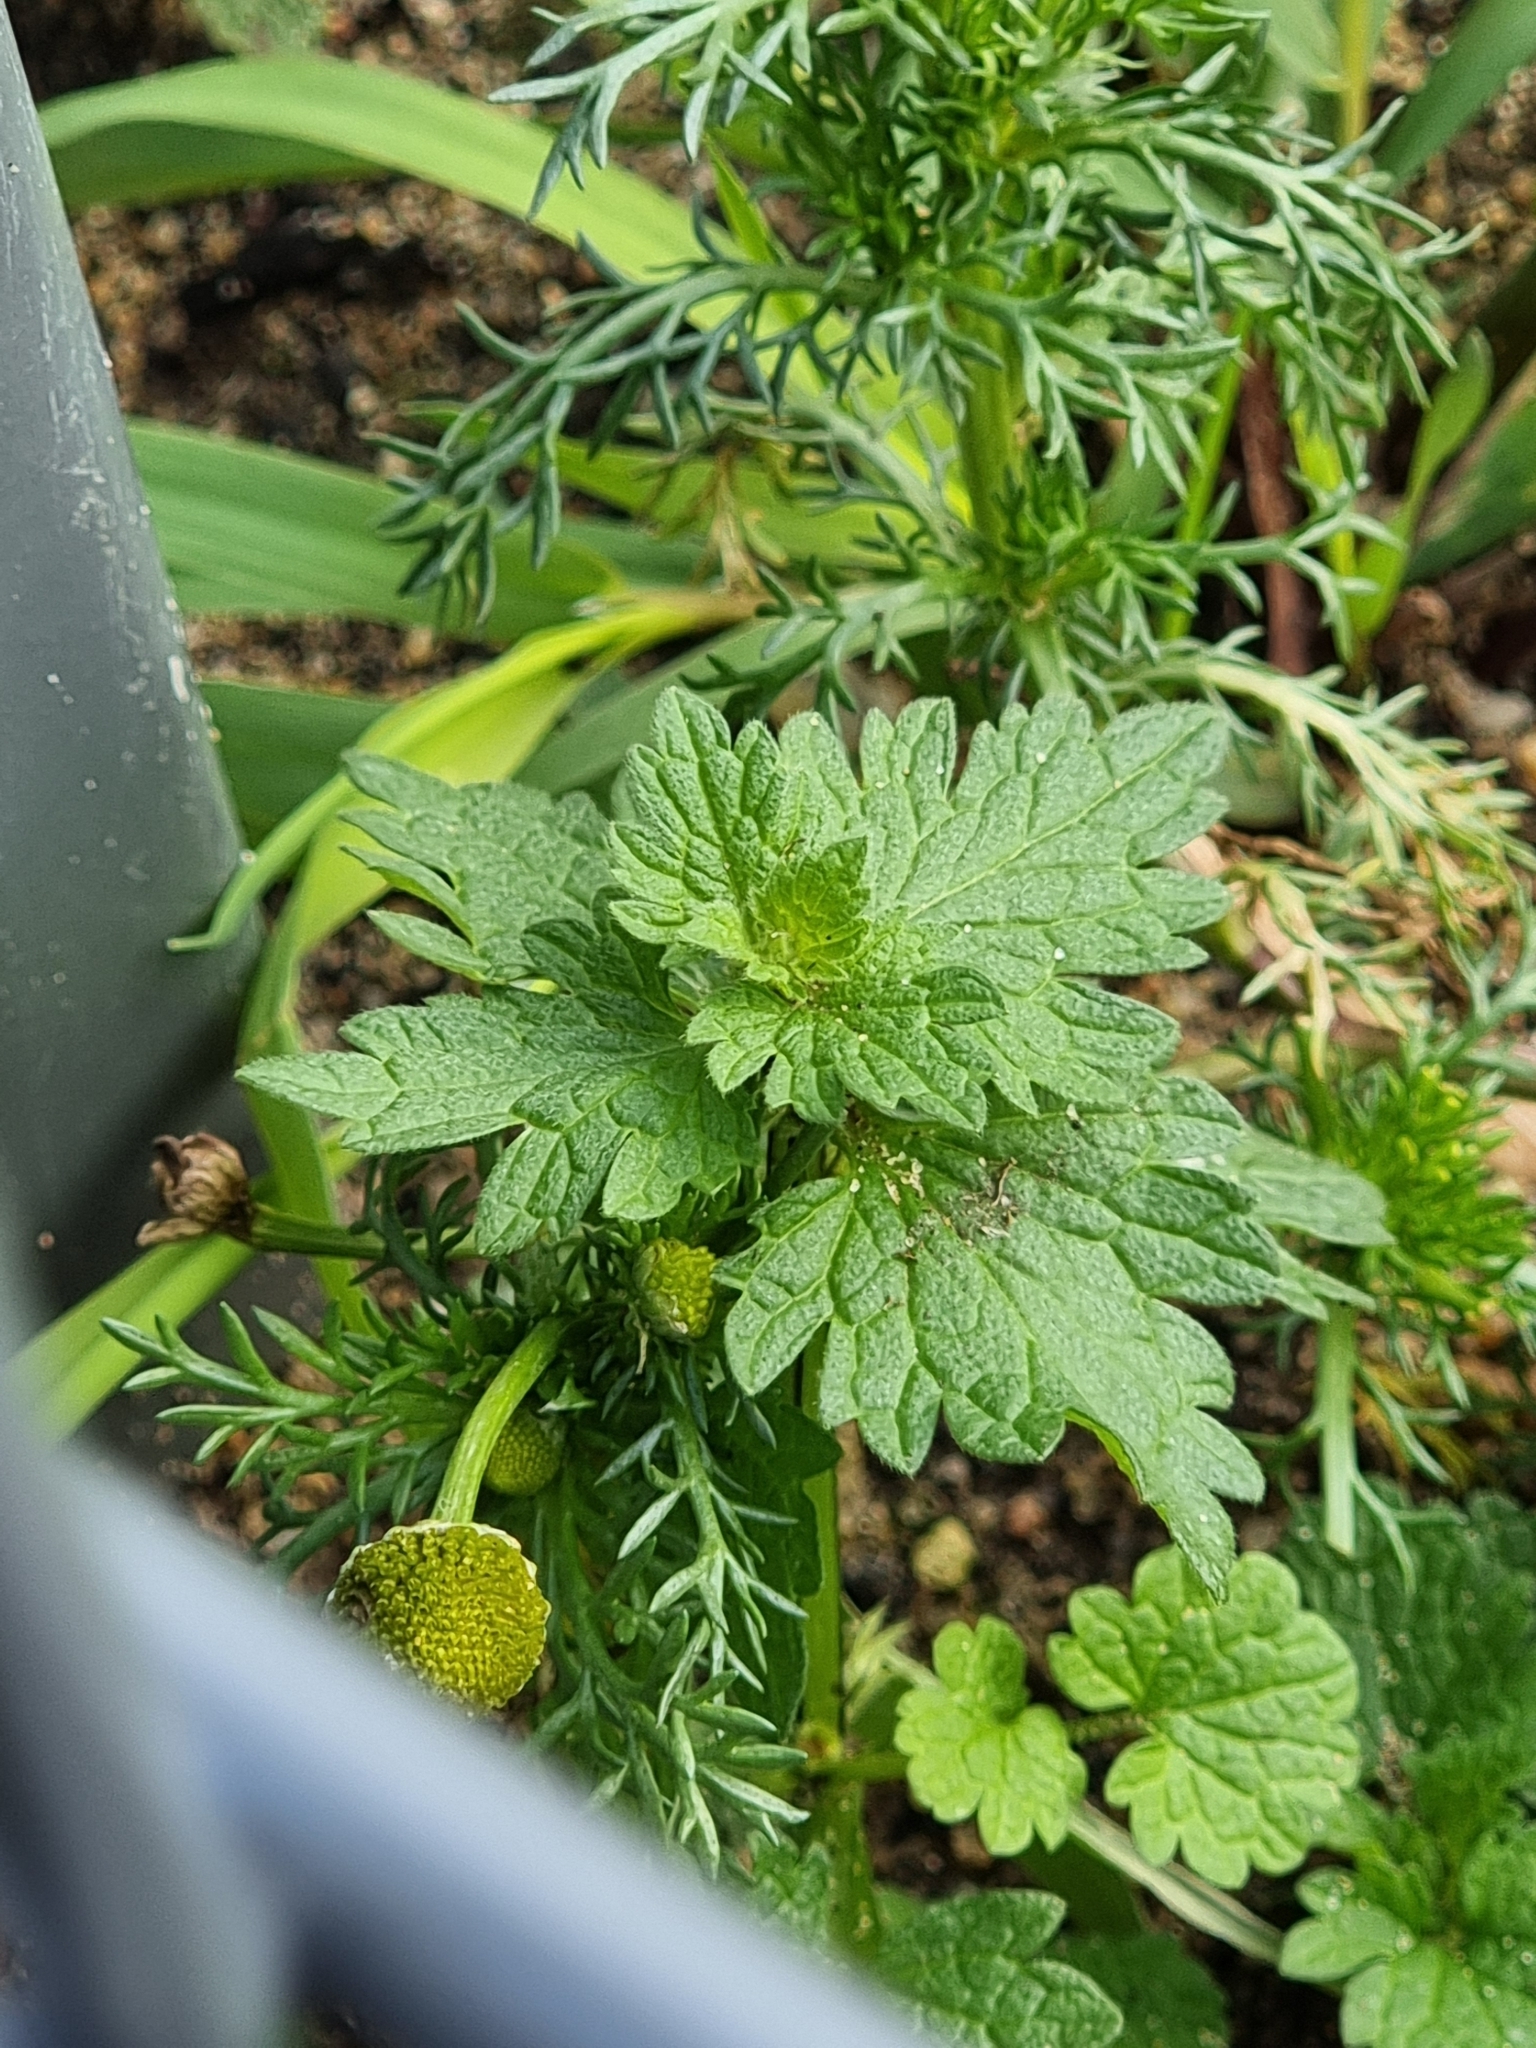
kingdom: Plantae
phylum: Tracheophyta
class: Magnoliopsida
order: Lamiales
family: Lamiaceae
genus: Lamium
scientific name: Lamium hybridum
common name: Cut-leaved dead-nettle
